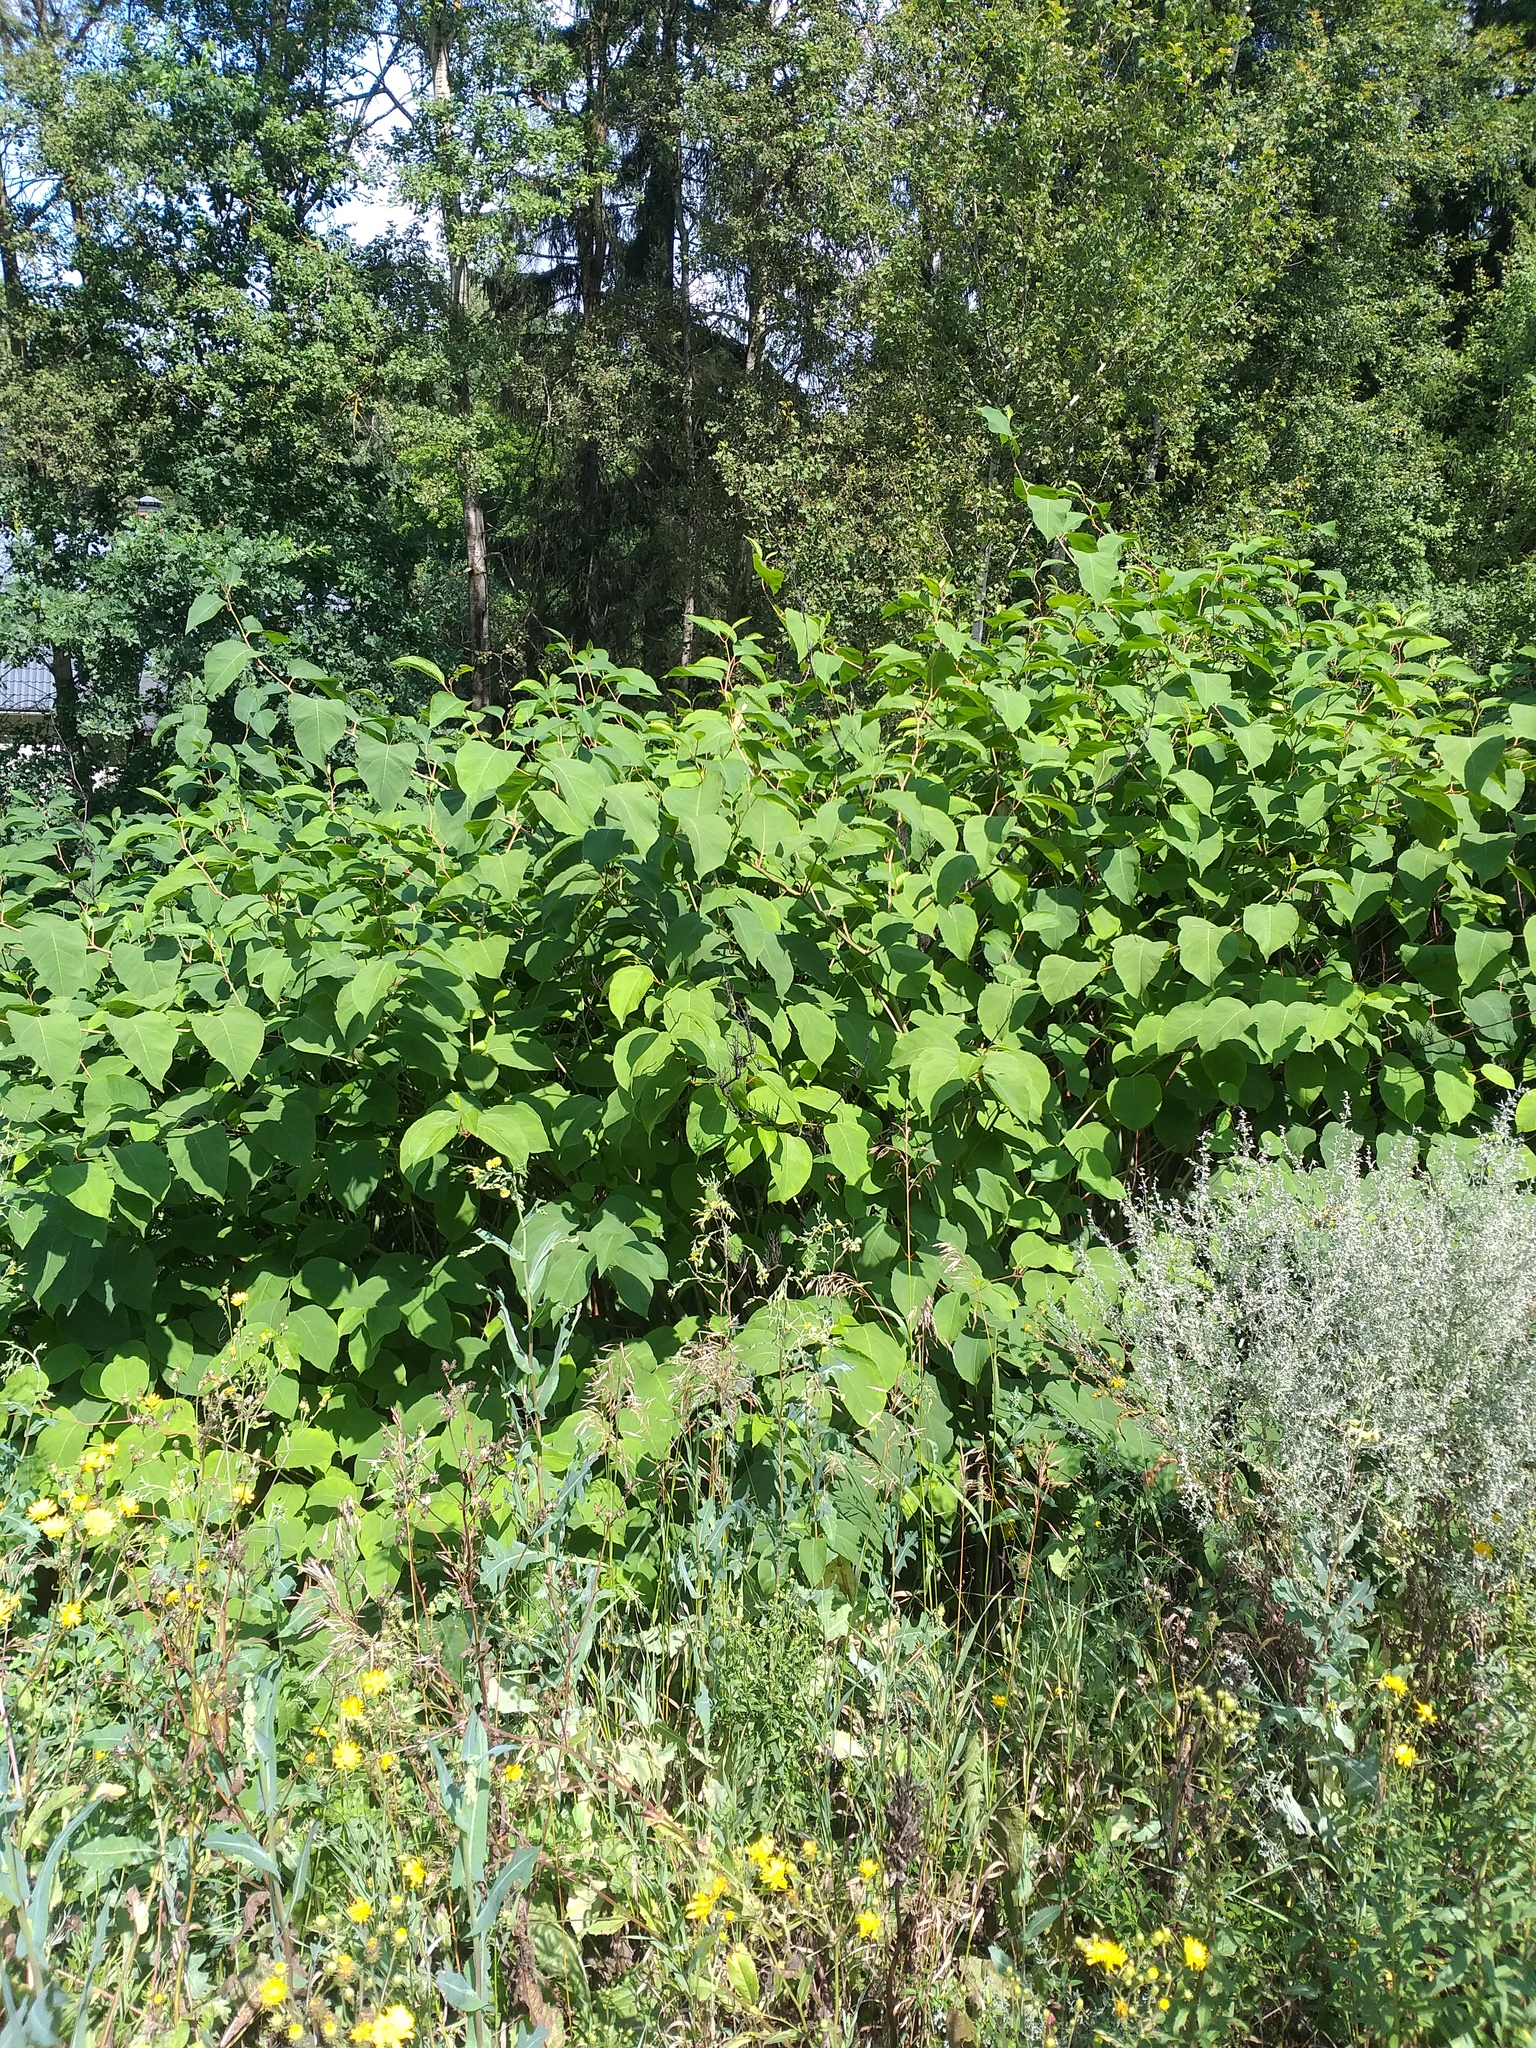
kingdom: Plantae
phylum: Tracheophyta
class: Magnoliopsida
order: Caryophyllales
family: Polygonaceae
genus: Reynoutria
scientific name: Reynoutria bohemica
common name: Bohemian knotweed
